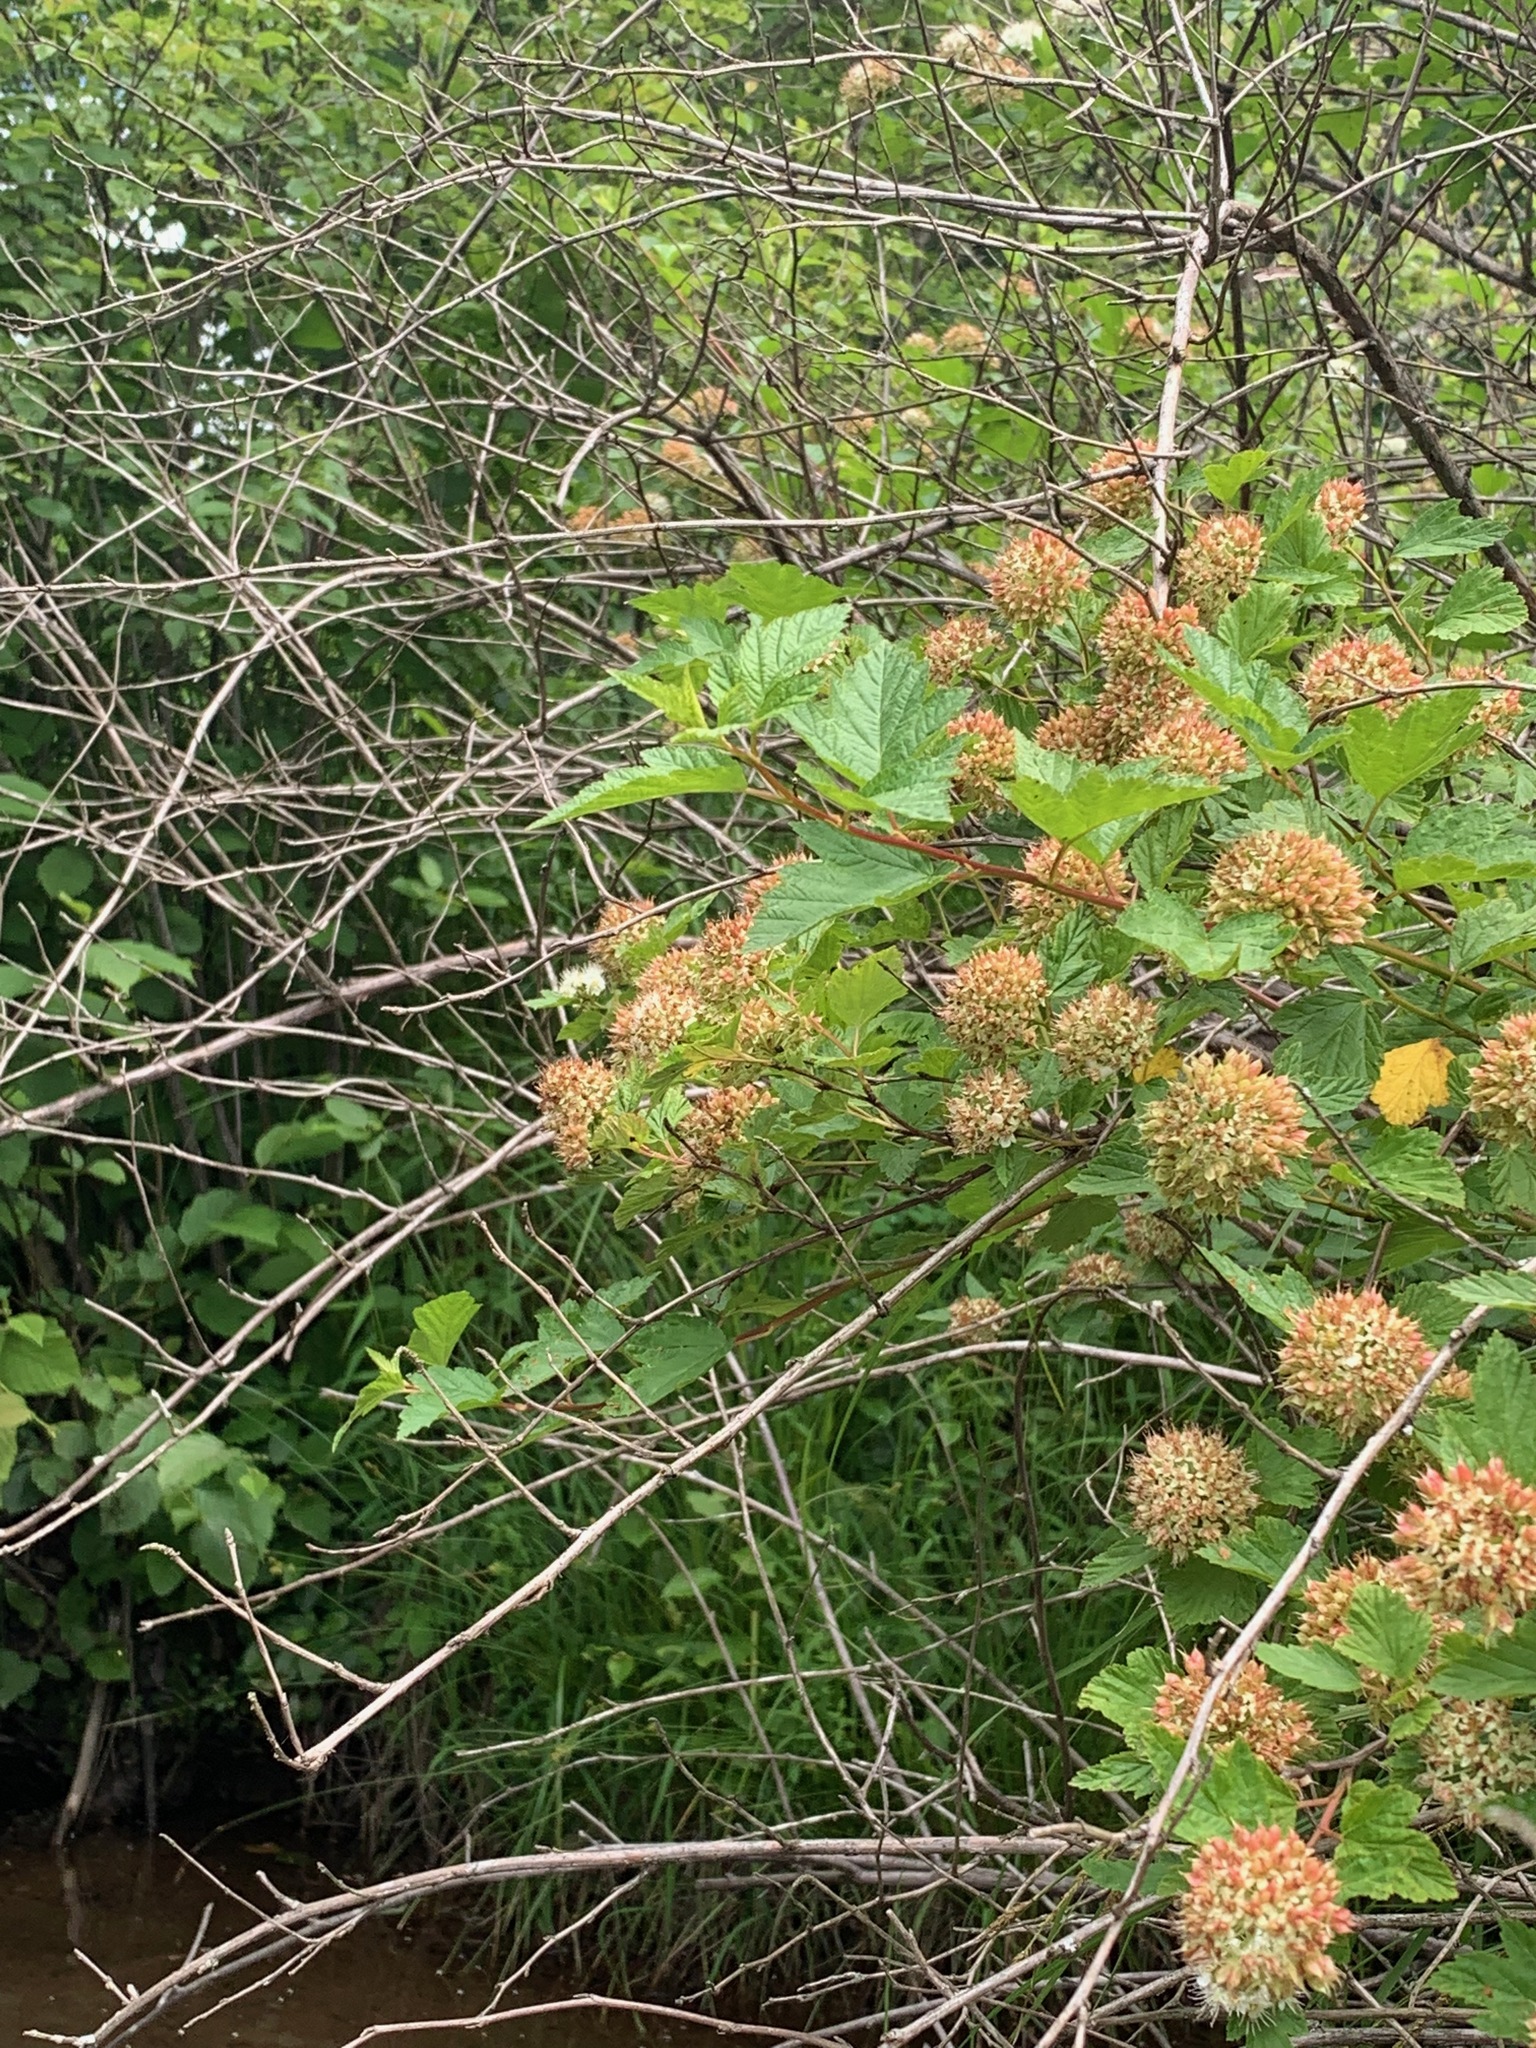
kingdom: Plantae
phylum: Tracheophyta
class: Magnoliopsida
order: Rosales
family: Rosaceae
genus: Physocarpus
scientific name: Physocarpus opulifolius
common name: Ninebark
